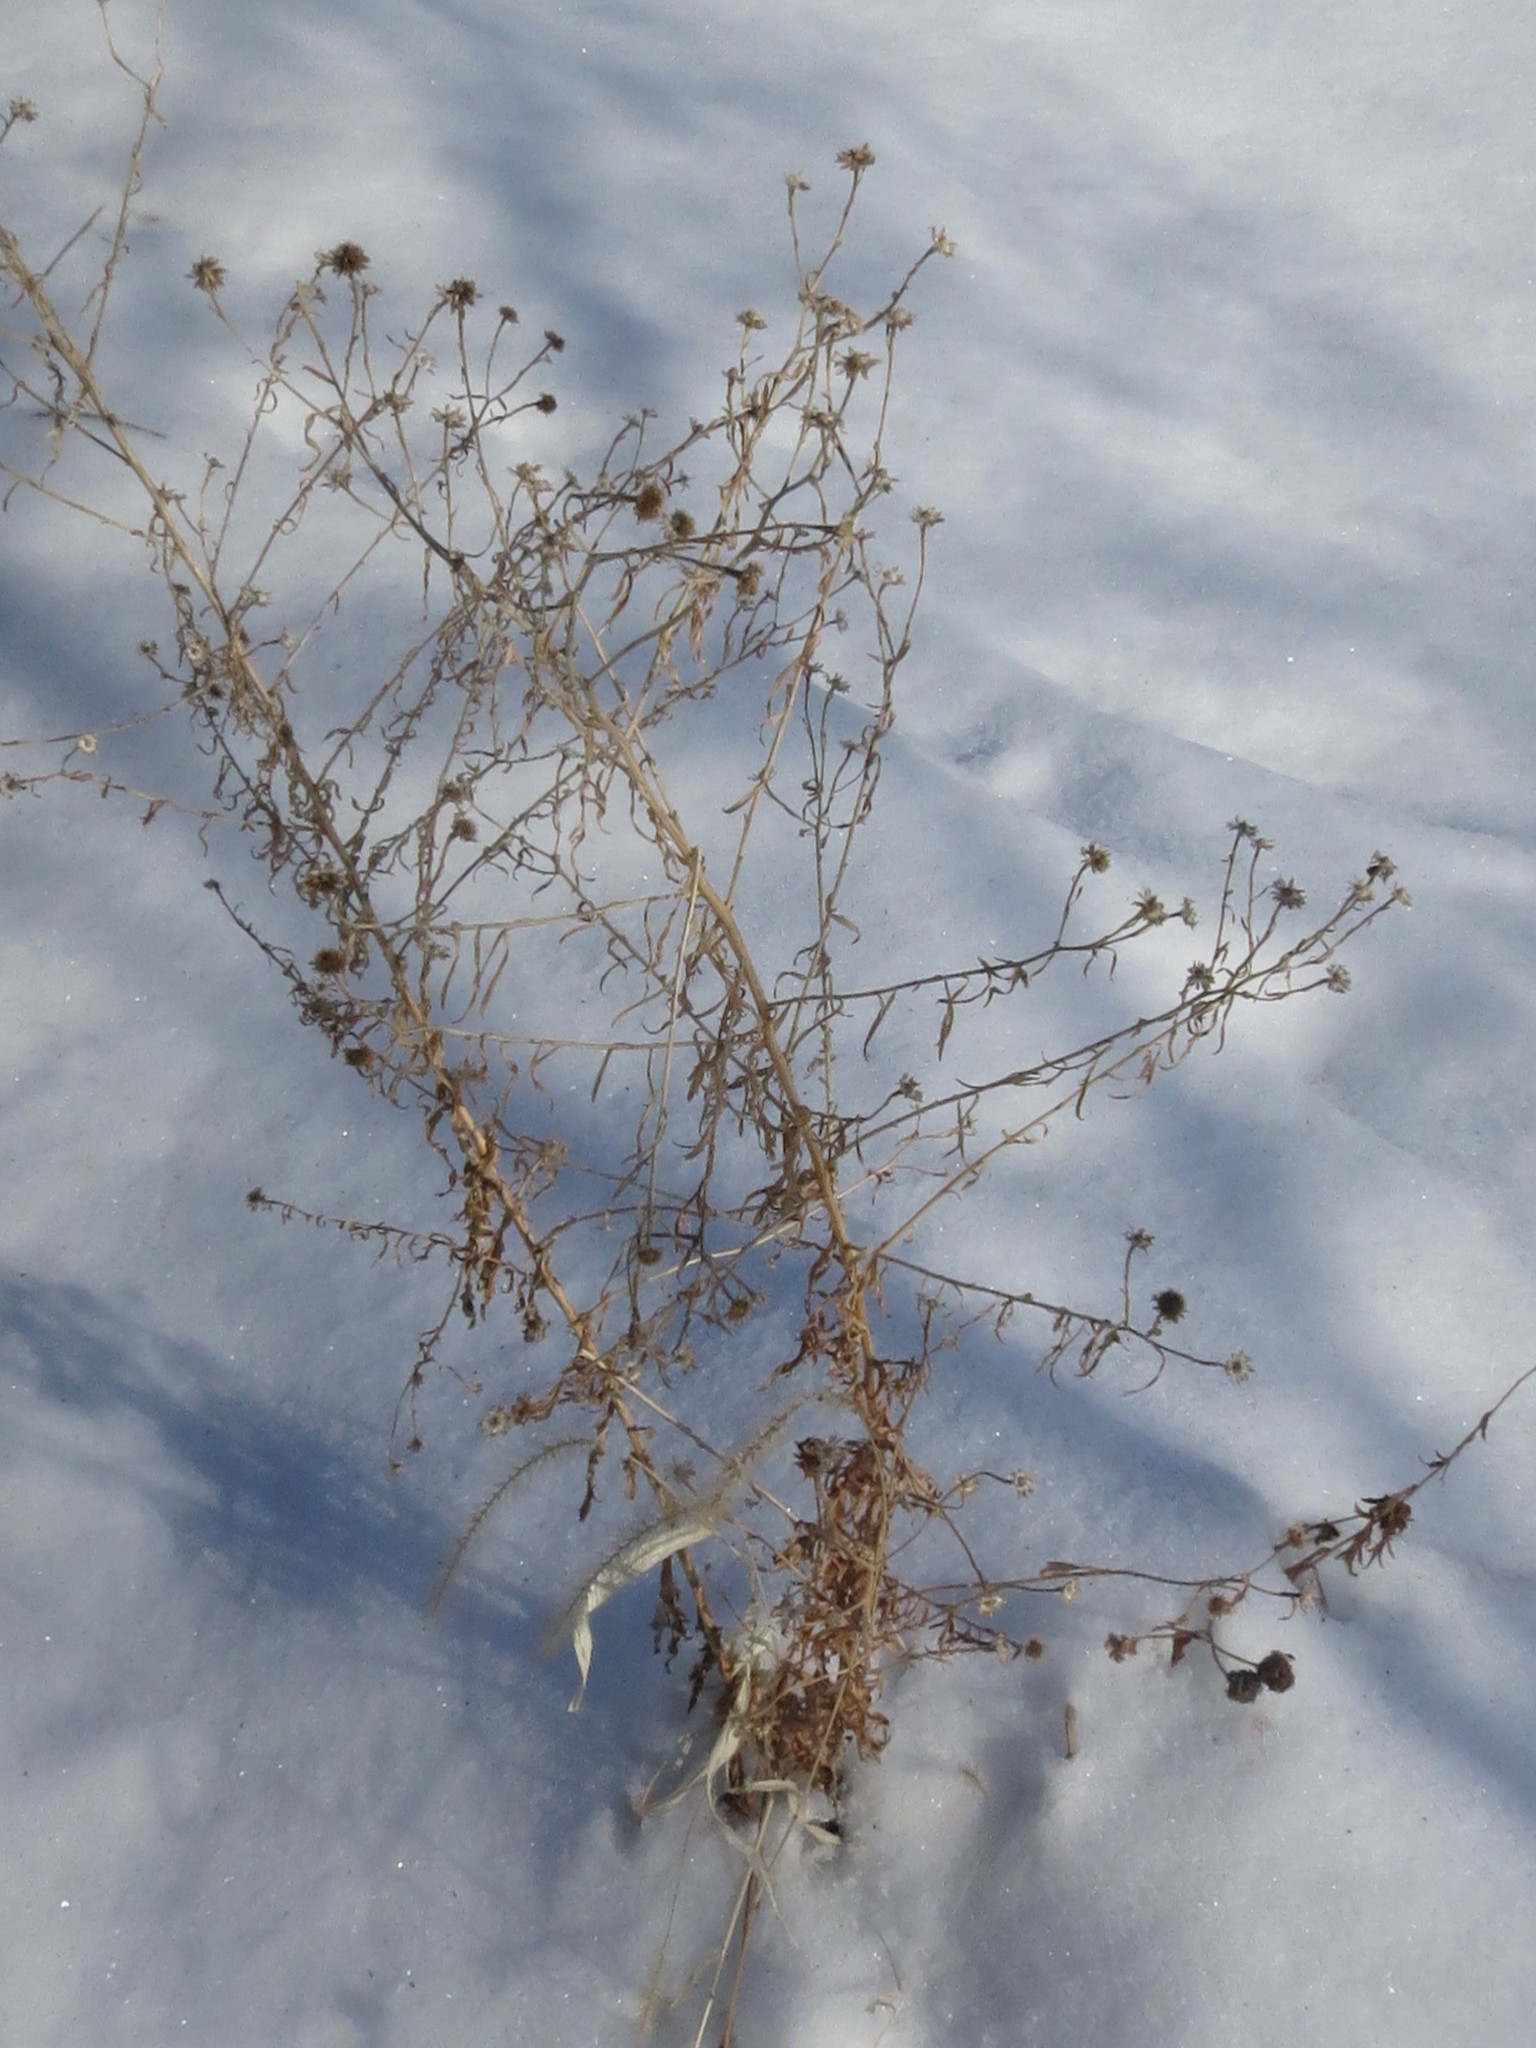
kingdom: Plantae
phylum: Tracheophyta
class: Magnoliopsida
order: Asterales
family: Asteraceae
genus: Kalimeris
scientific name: Kalimeris incisa
